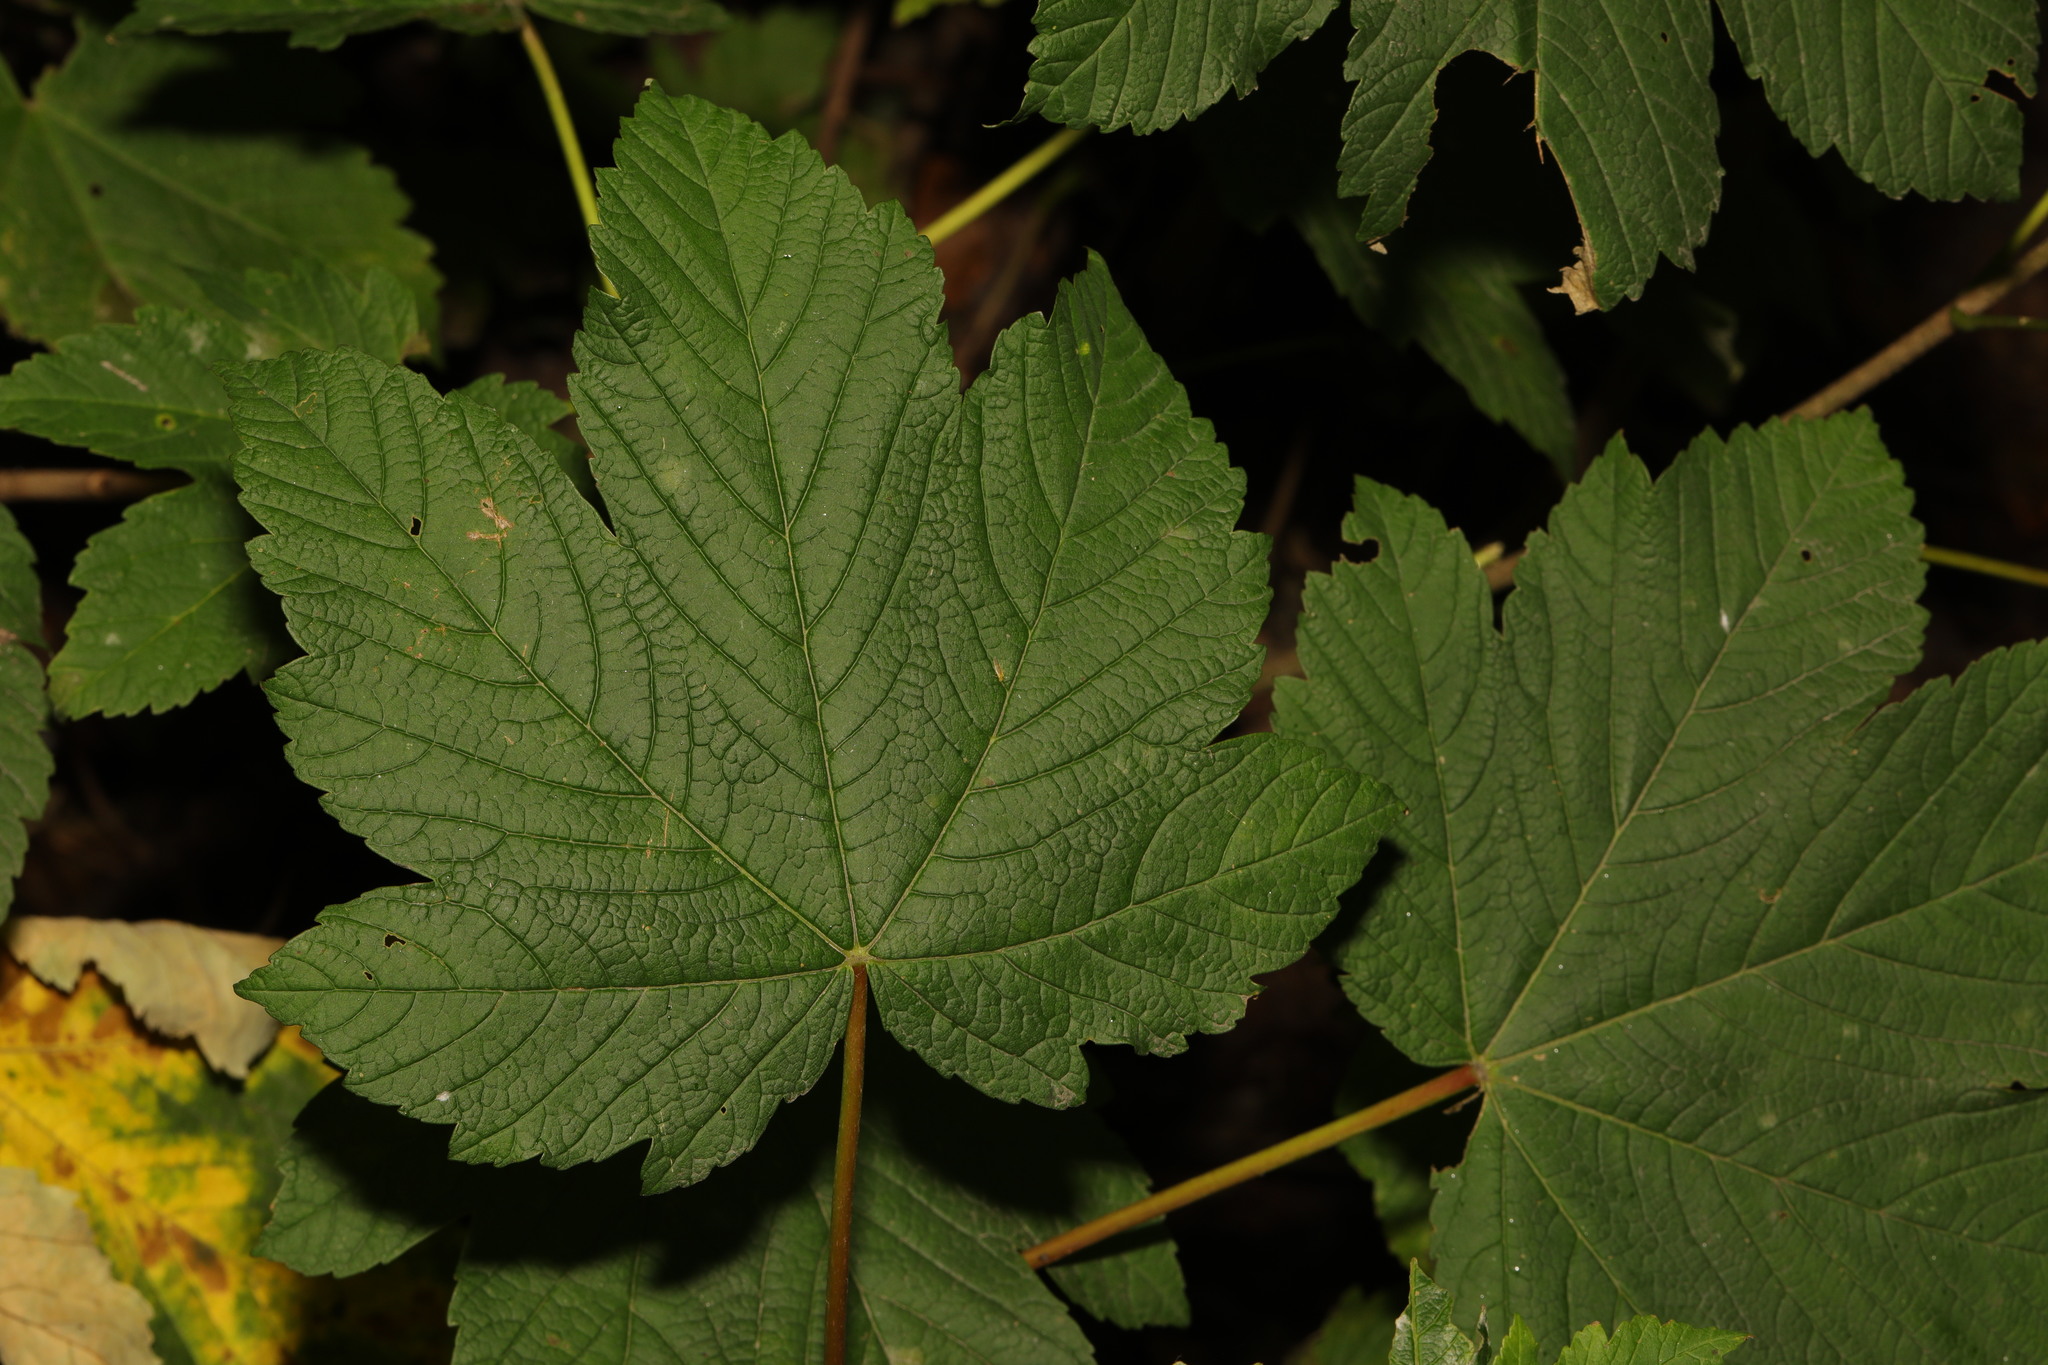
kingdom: Plantae
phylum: Tracheophyta
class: Magnoliopsida
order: Sapindales
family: Sapindaceae
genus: Acer
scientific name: Acer pseudoplatanus
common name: Sycamore
